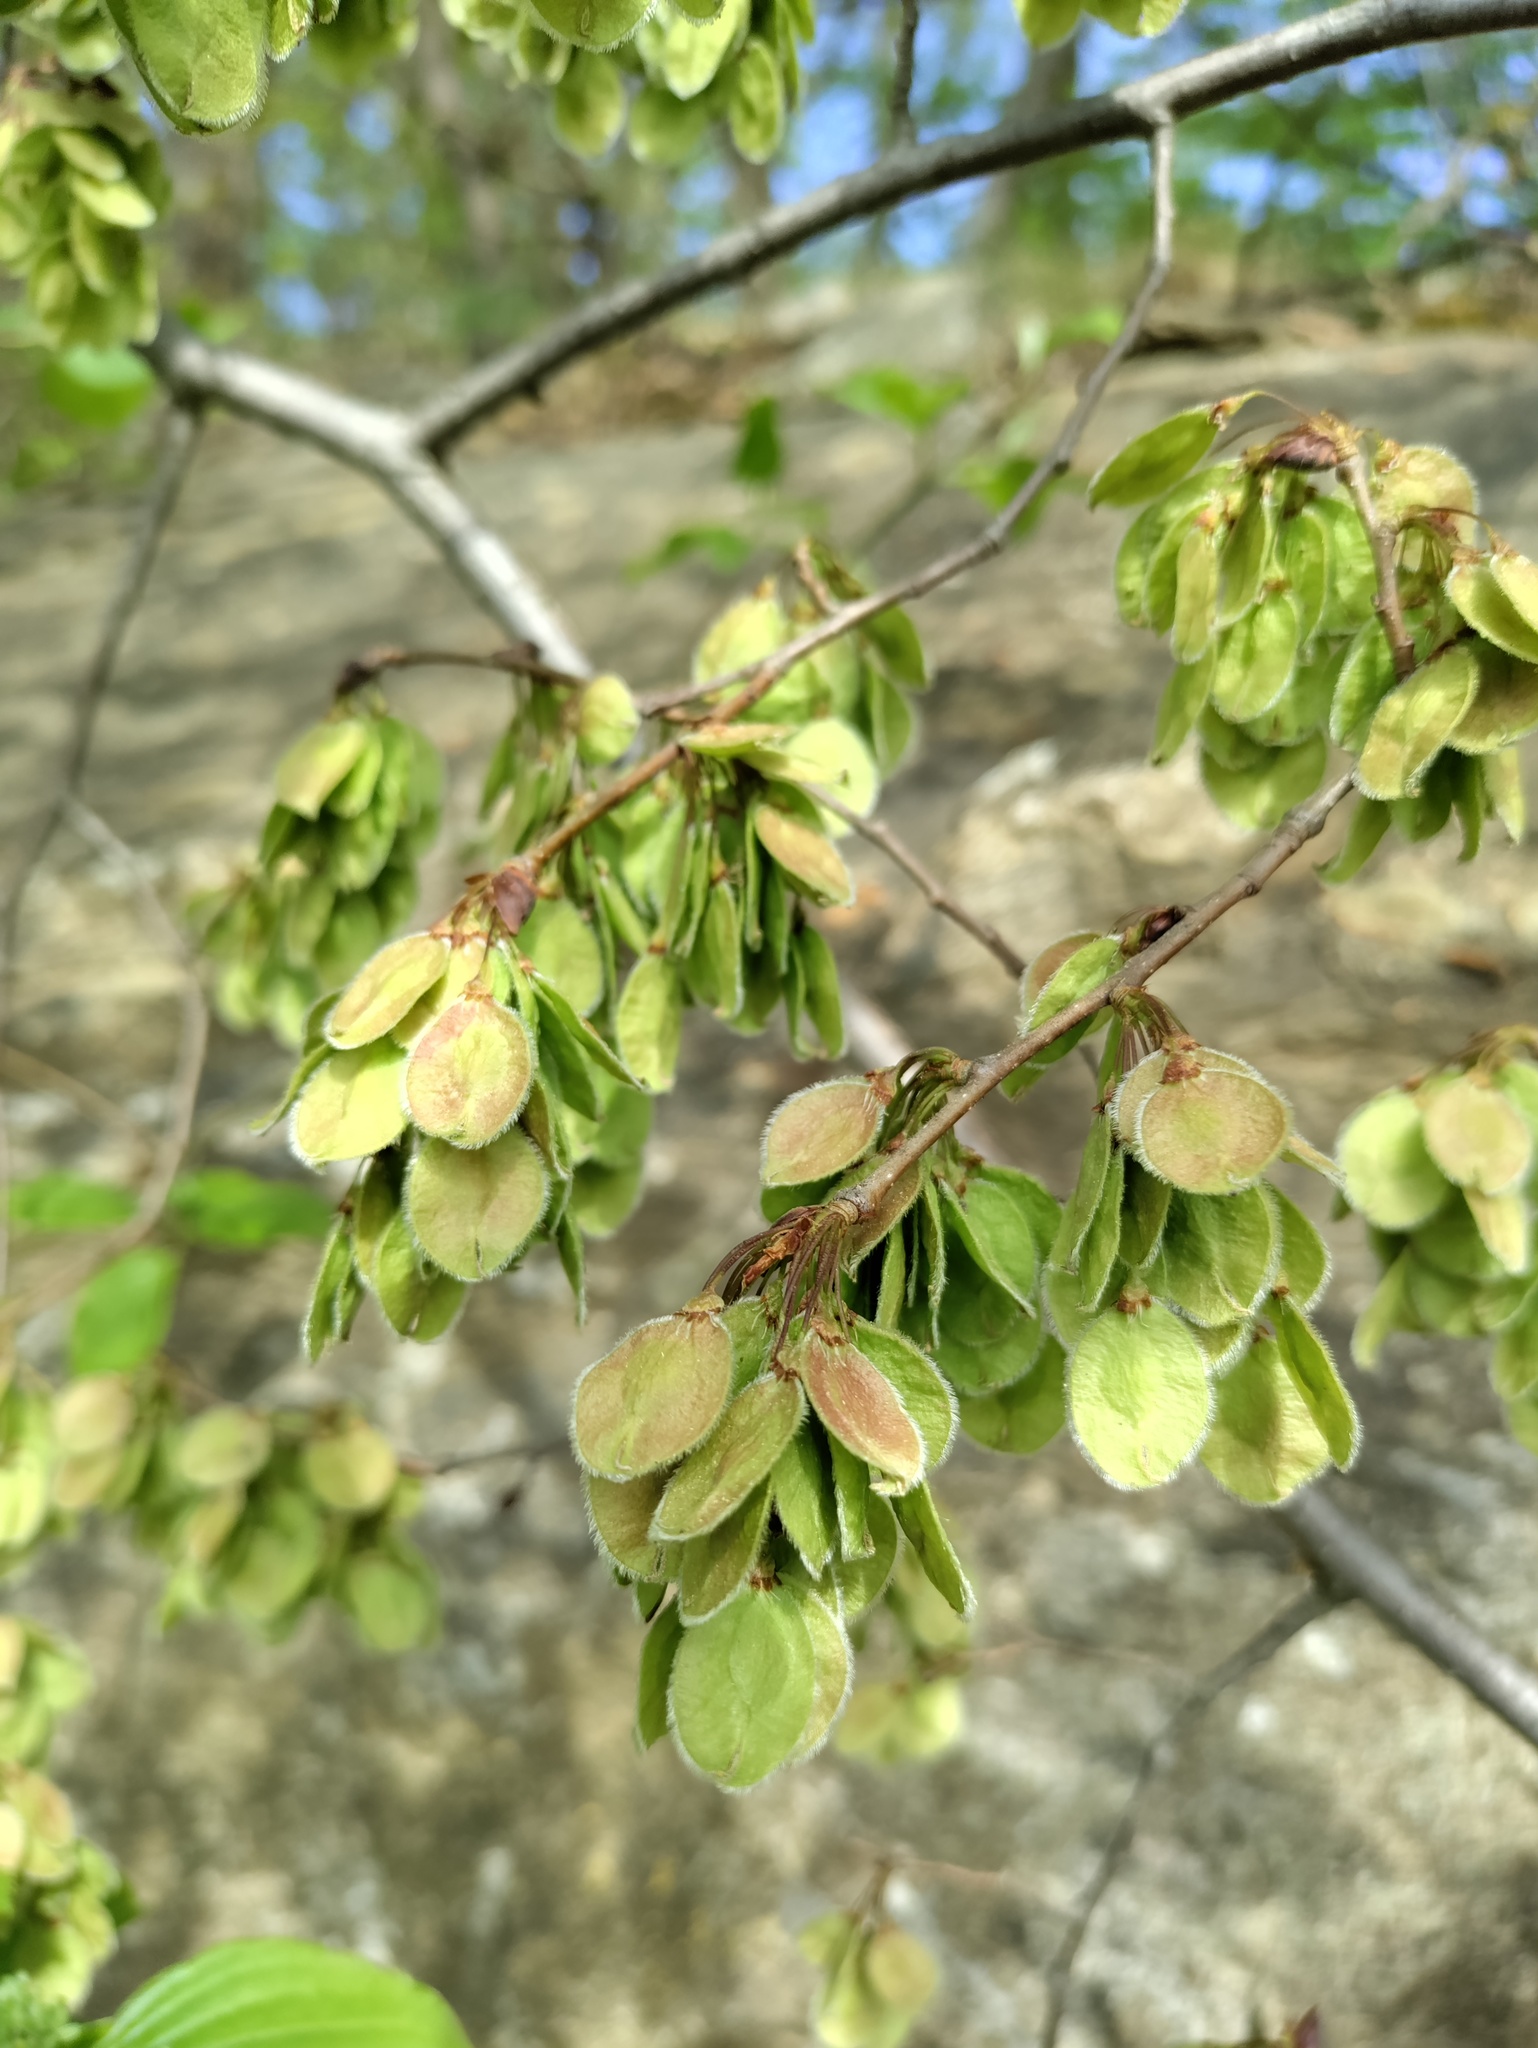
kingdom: Plantae
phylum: Tracheophyta
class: Magnoliopsida
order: Rosales
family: Ulmaceae
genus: Ulmus
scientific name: Ulmus laevis
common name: European white-elm
